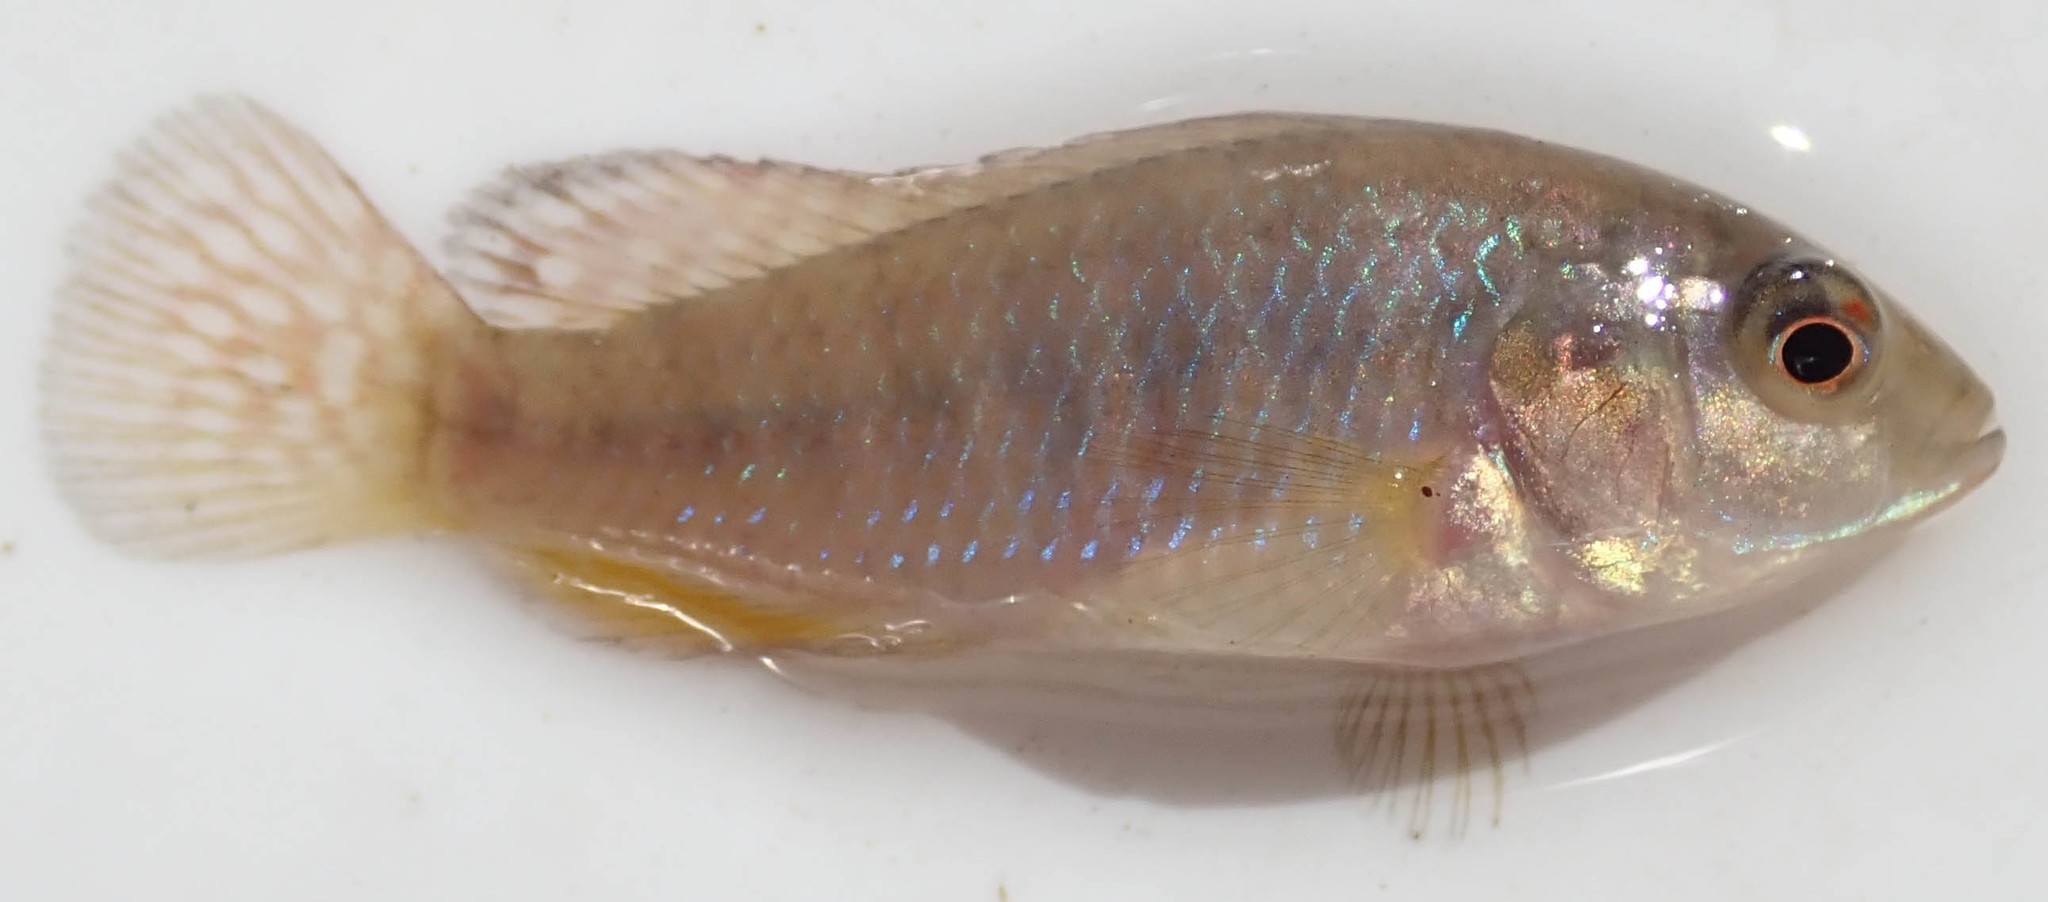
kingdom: Animalia
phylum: Chordata
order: Perciformes
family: Cichlidae
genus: Pseudocrenilabrus
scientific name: Pseudocrenilabrus philander
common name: Southern mouthbrooder
